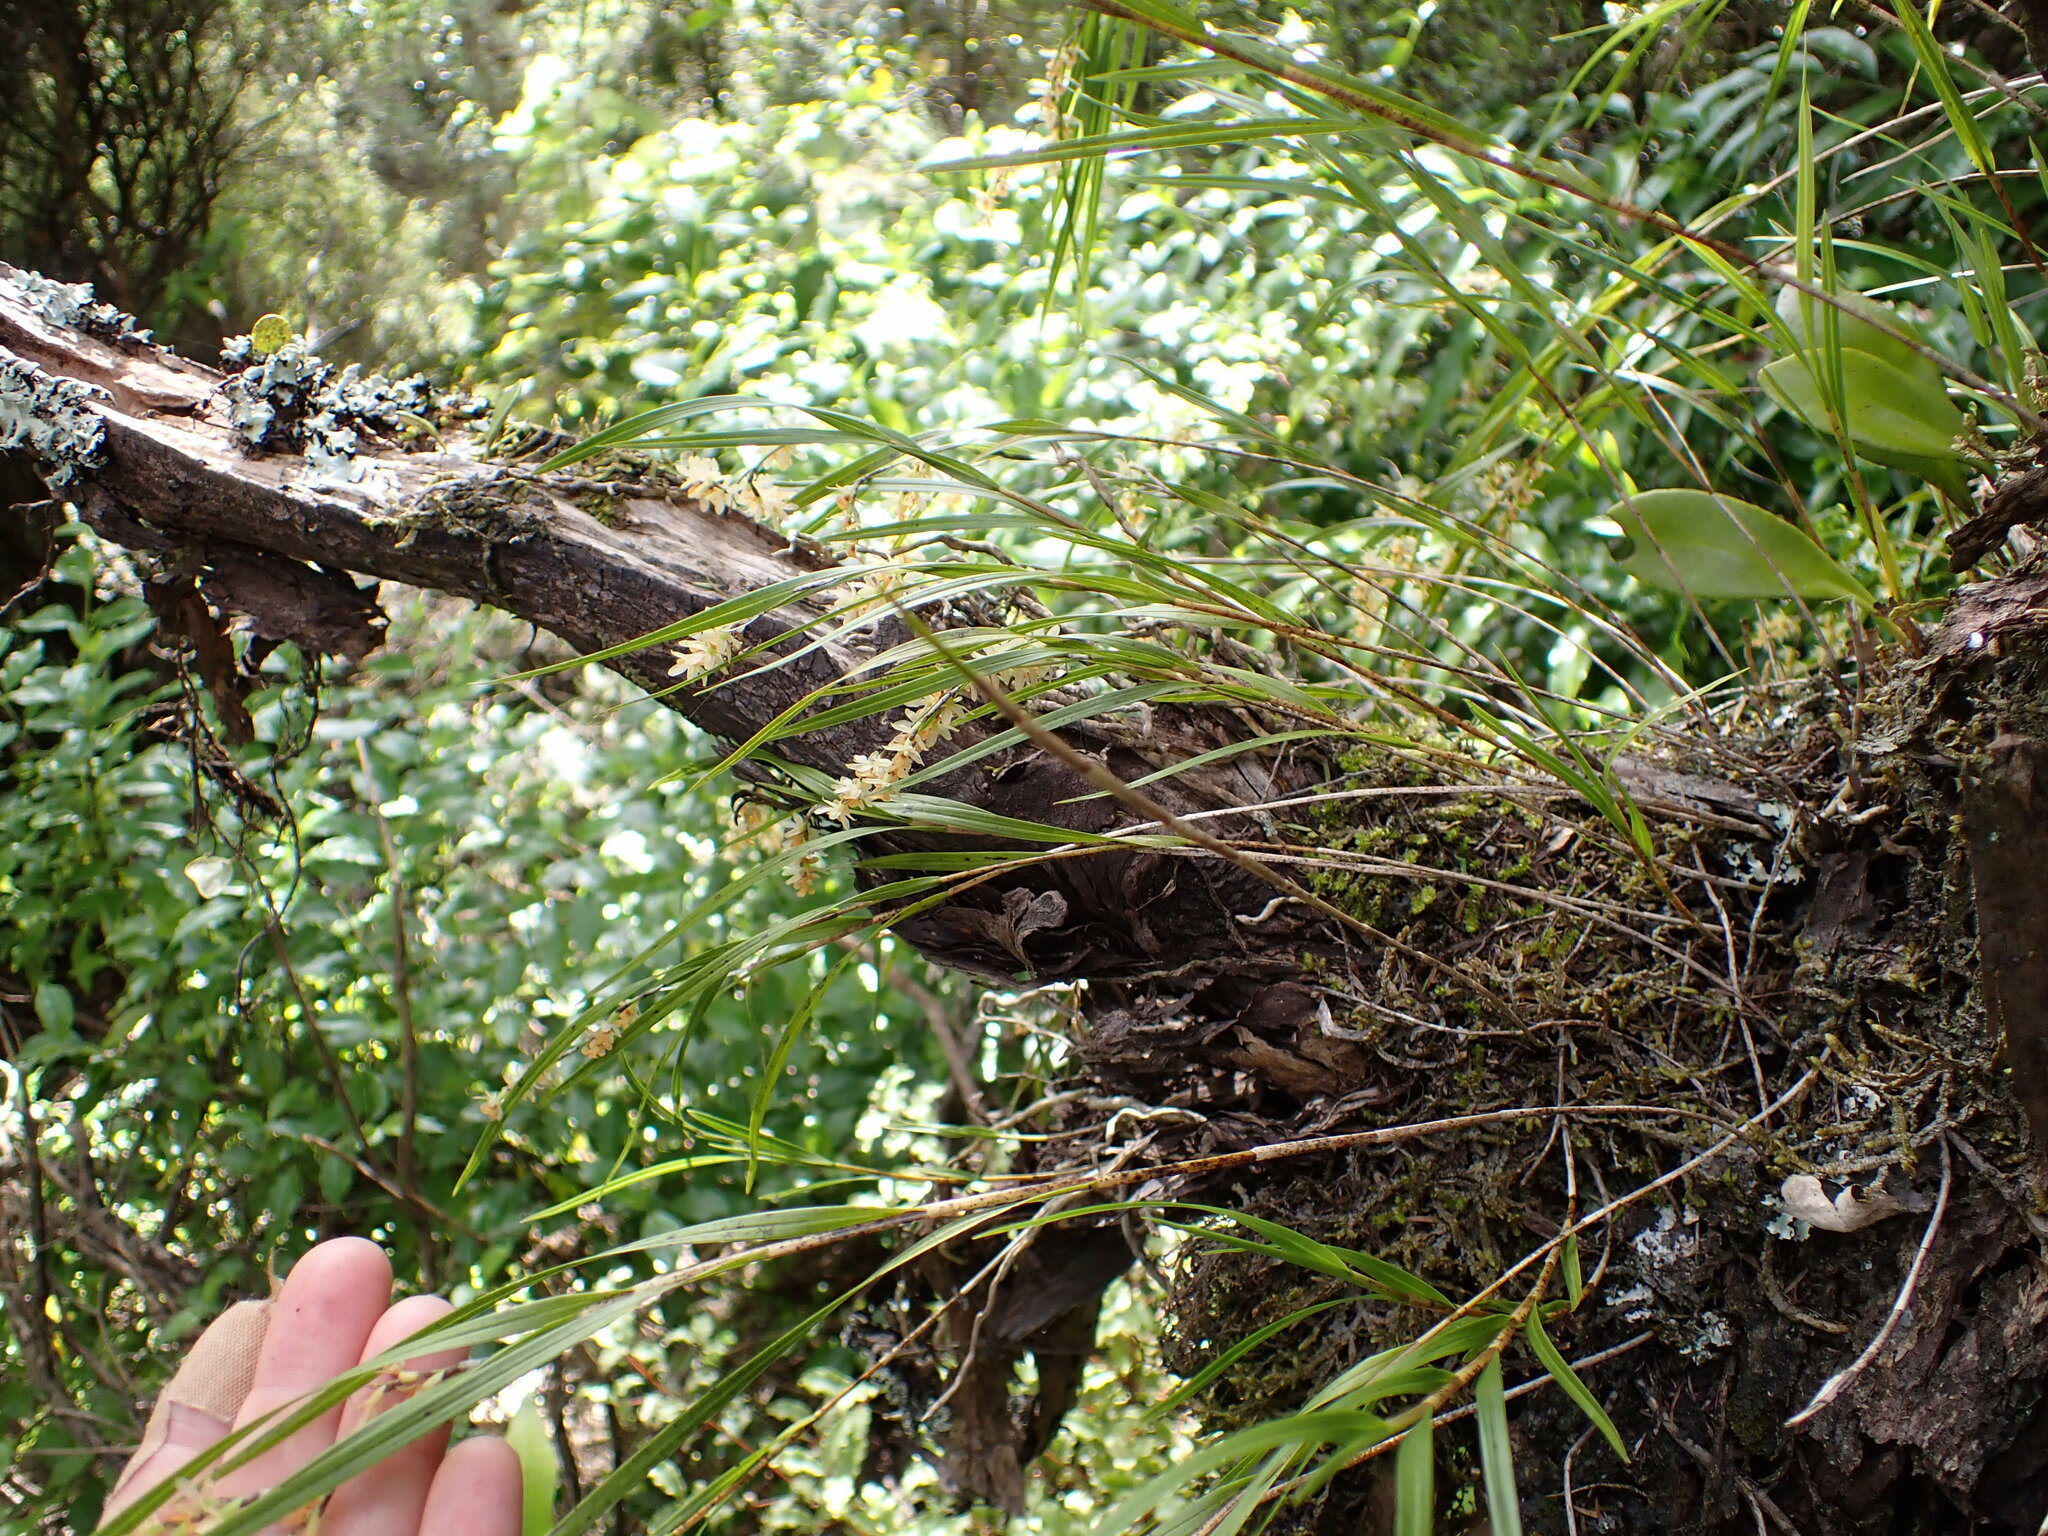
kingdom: Plantae
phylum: Tracheophyta
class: Liliopsida
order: Asparagales
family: Orchidaceae
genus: Earina
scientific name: Earina mucronata
